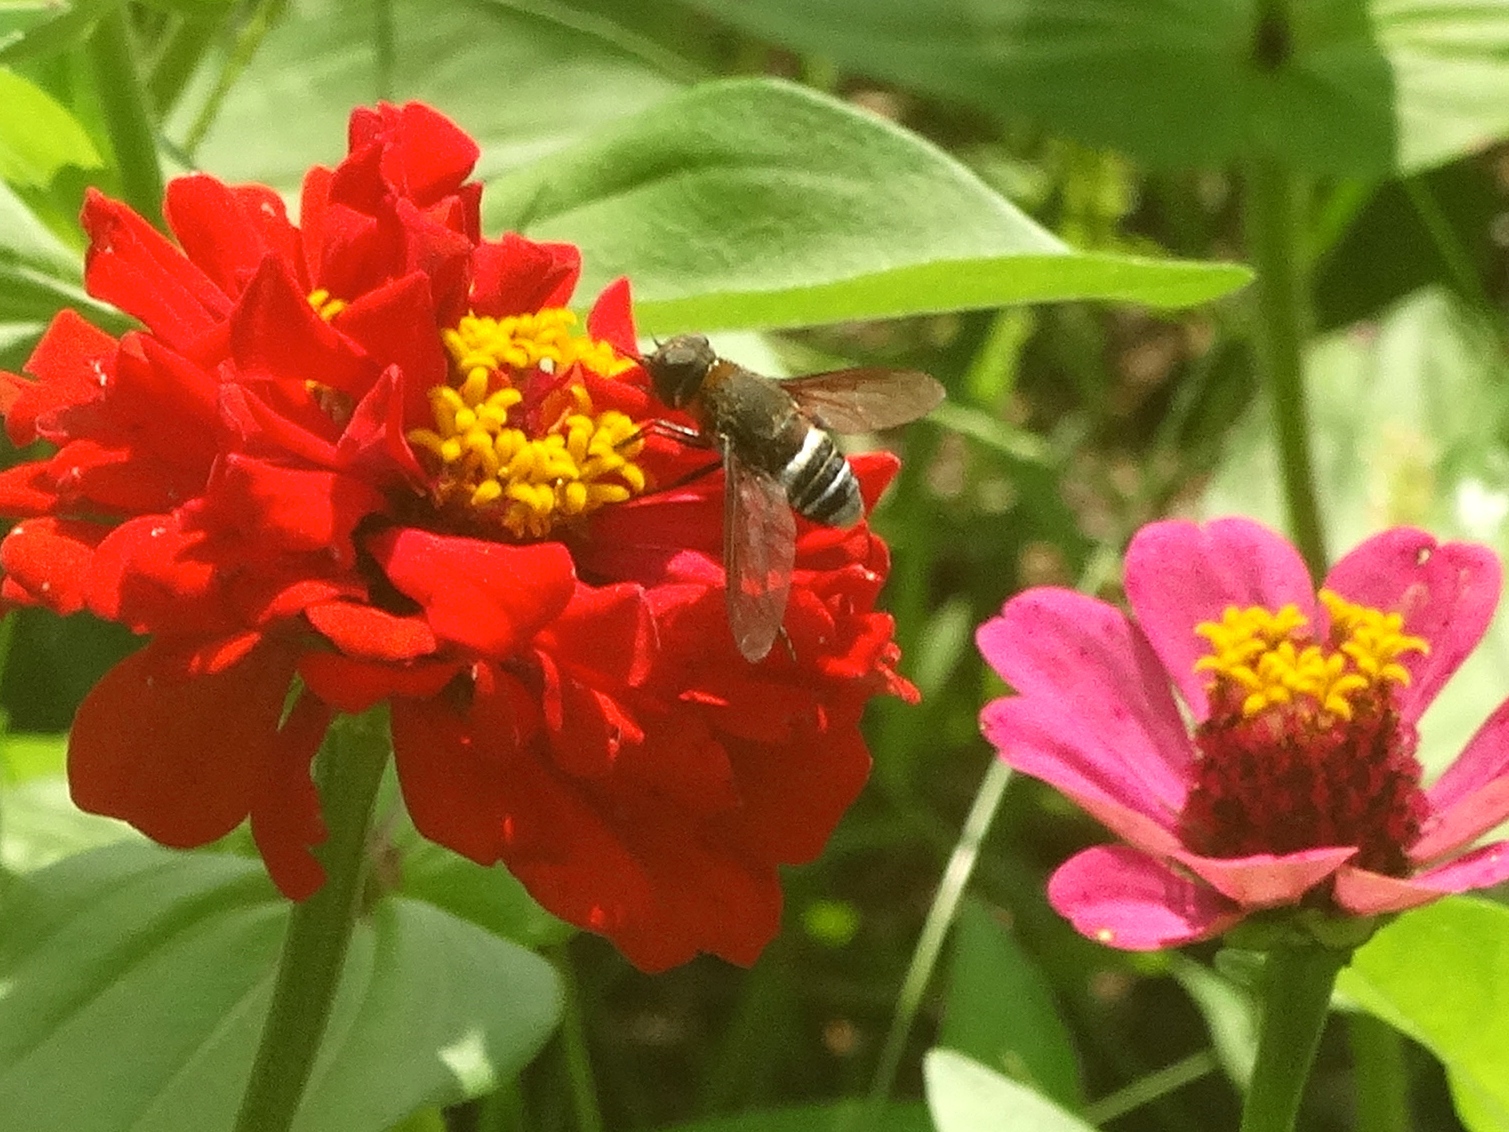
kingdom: Animalia
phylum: Arthropoda
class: Insecta
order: Diptera
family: Bombyliidae
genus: Exoprosopa
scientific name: Exoprosopa
